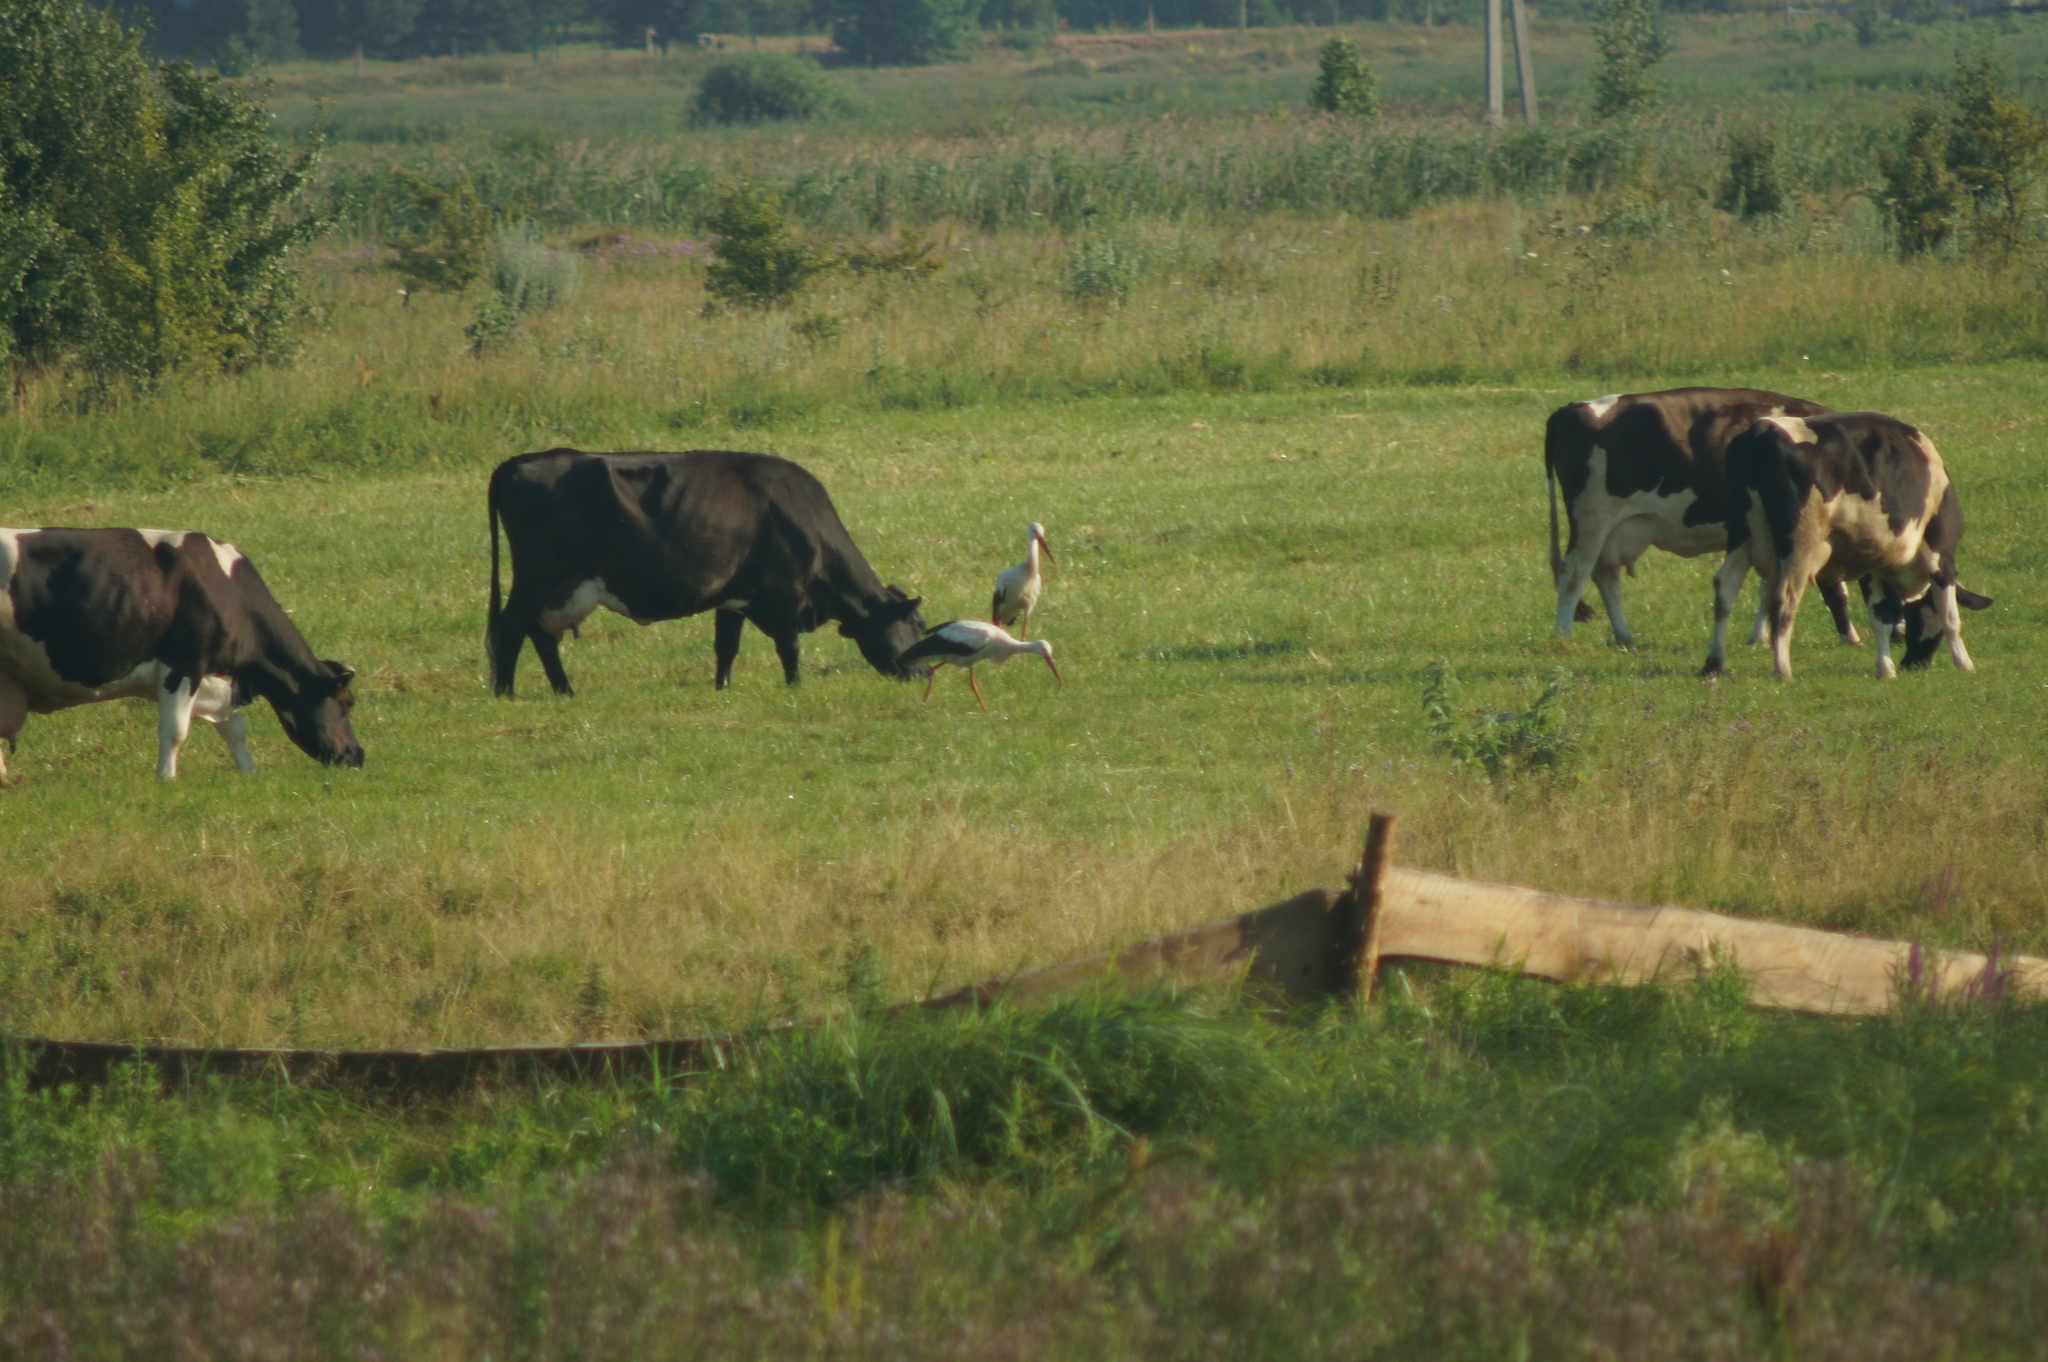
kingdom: Animalia
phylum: Chordata
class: Aves
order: Ciconiiformes
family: Ciconiidae
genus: Ciconia
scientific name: Ciconia ciconia
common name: White stork
